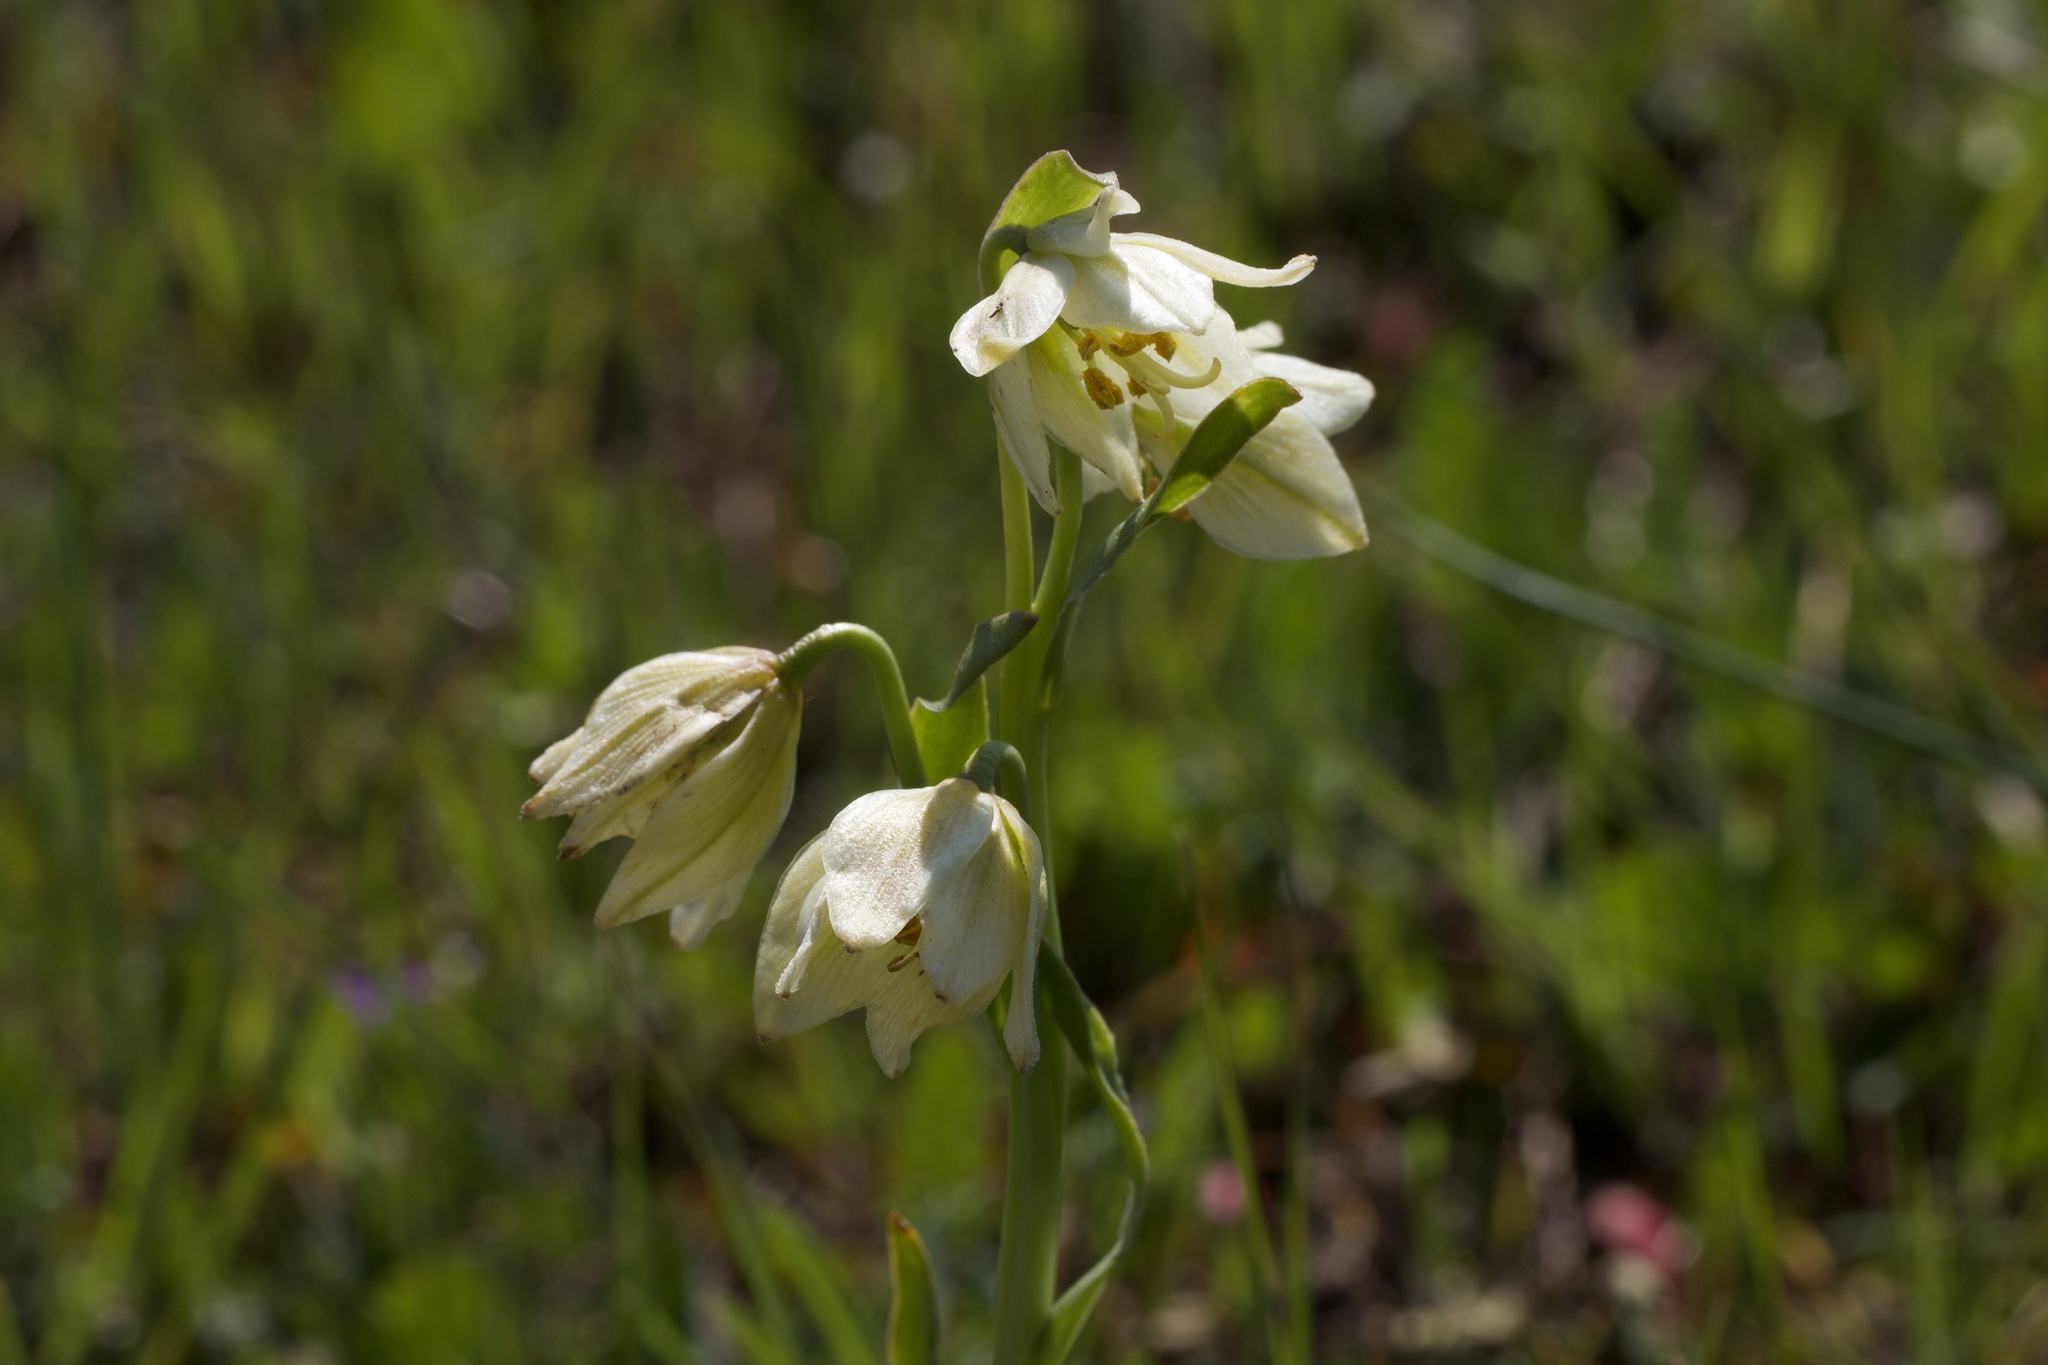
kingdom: Plantae
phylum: Tracheophyta
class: Liliopsida
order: Liliales
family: Liliaceae
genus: Fritillaria
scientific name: Fritillaria liliacea
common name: Fragrant fritillary
